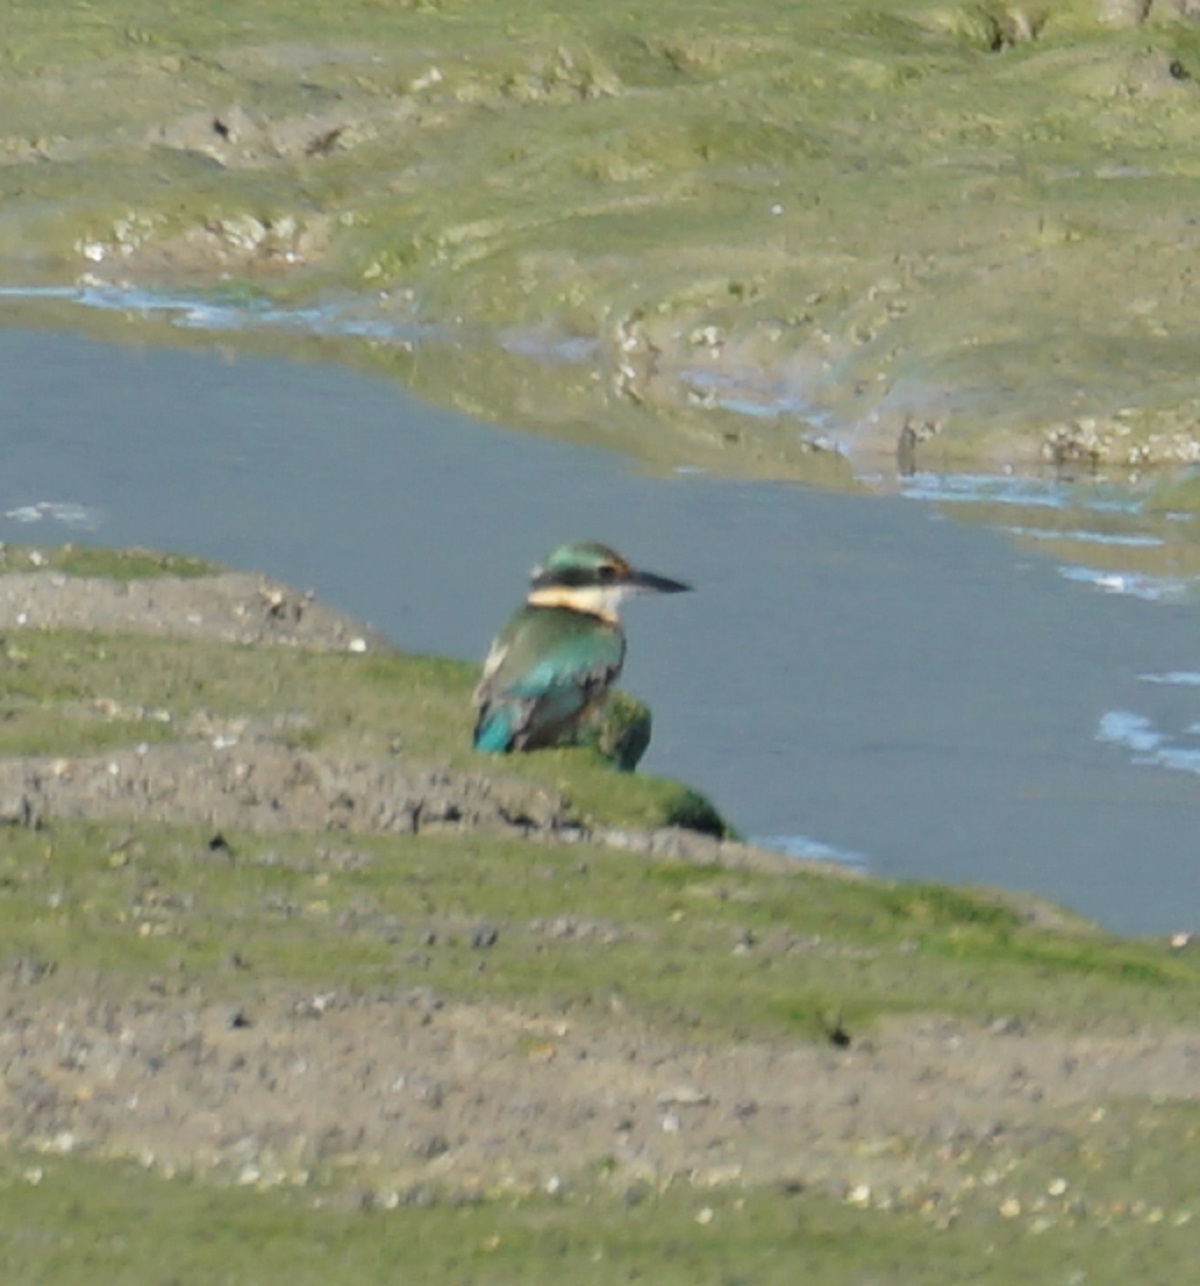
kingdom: Animalia
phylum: Chordata
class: Aves
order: Coraciiformes
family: Alcedinidae
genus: Todiramphus
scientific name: Todiramphus sanctus
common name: Sacred kingfisher
